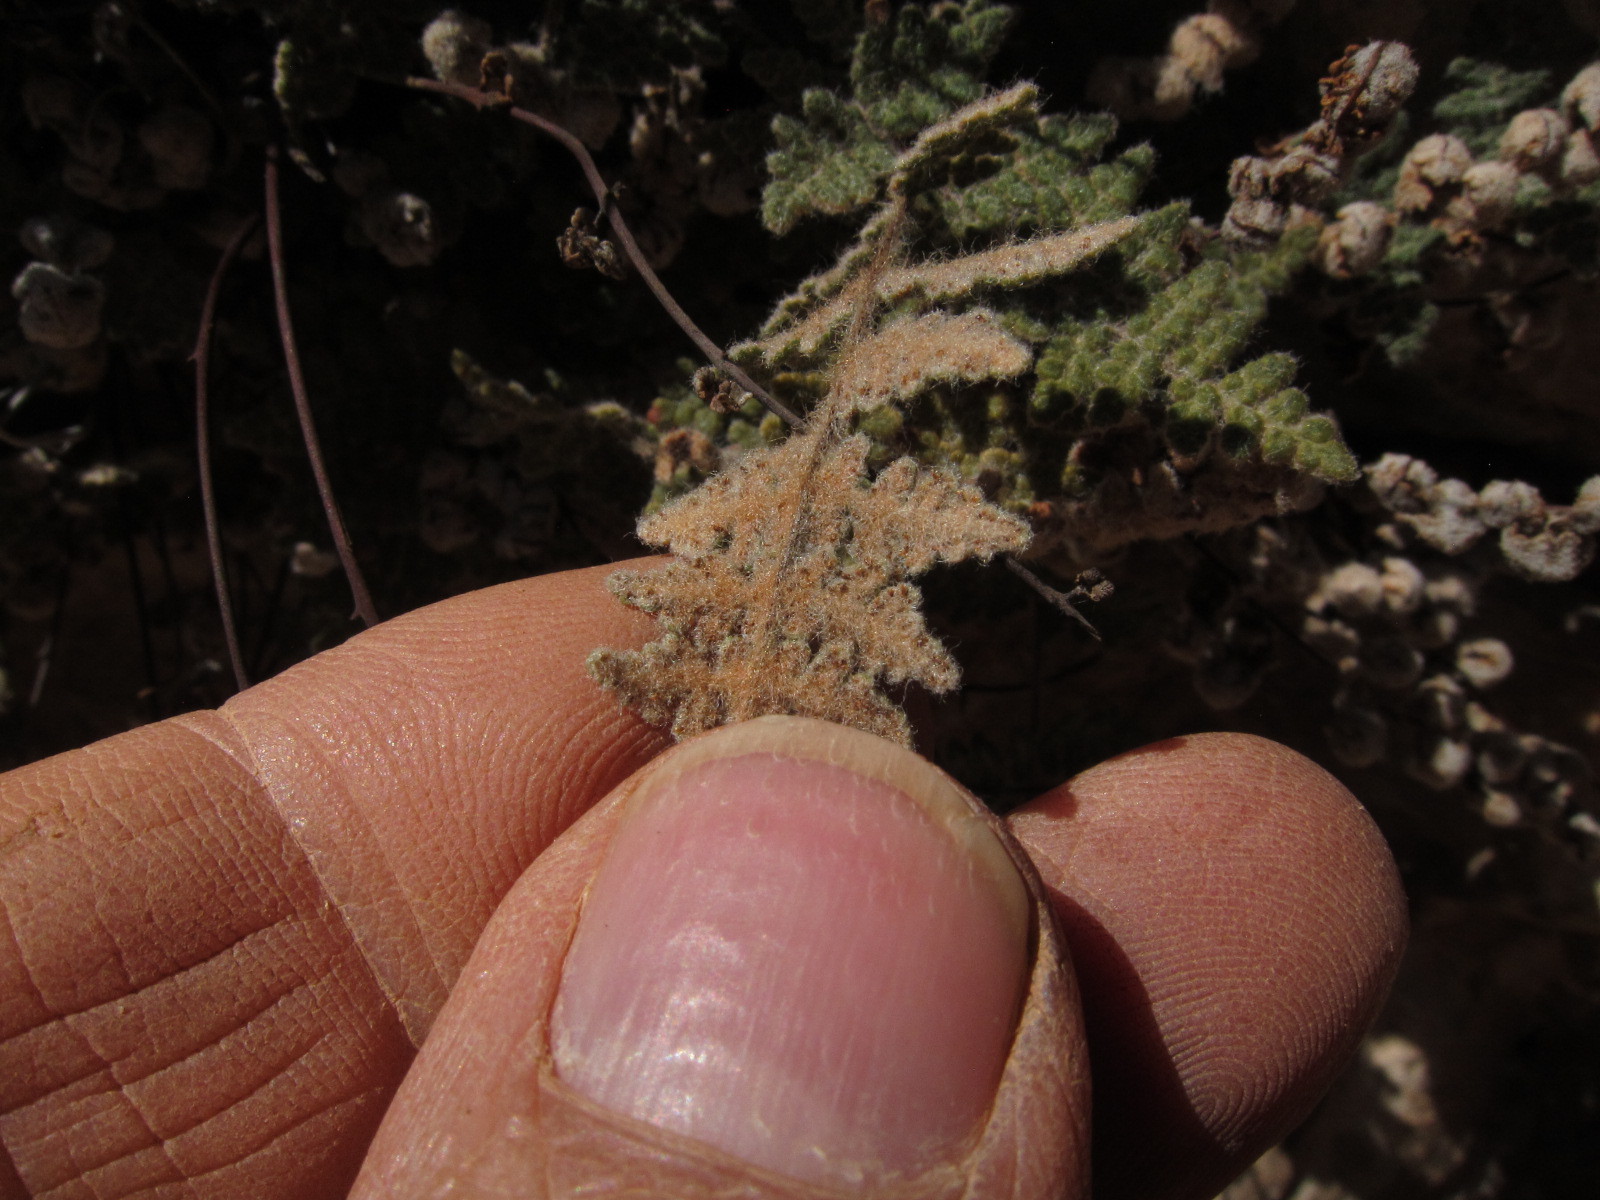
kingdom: Plantae
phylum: Tracheophyta
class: Polypodiopsida
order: Polypodiales
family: Pteridaceae
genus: Myriopteris
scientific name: Myriopteris gracilis
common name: Fee's lip fern
